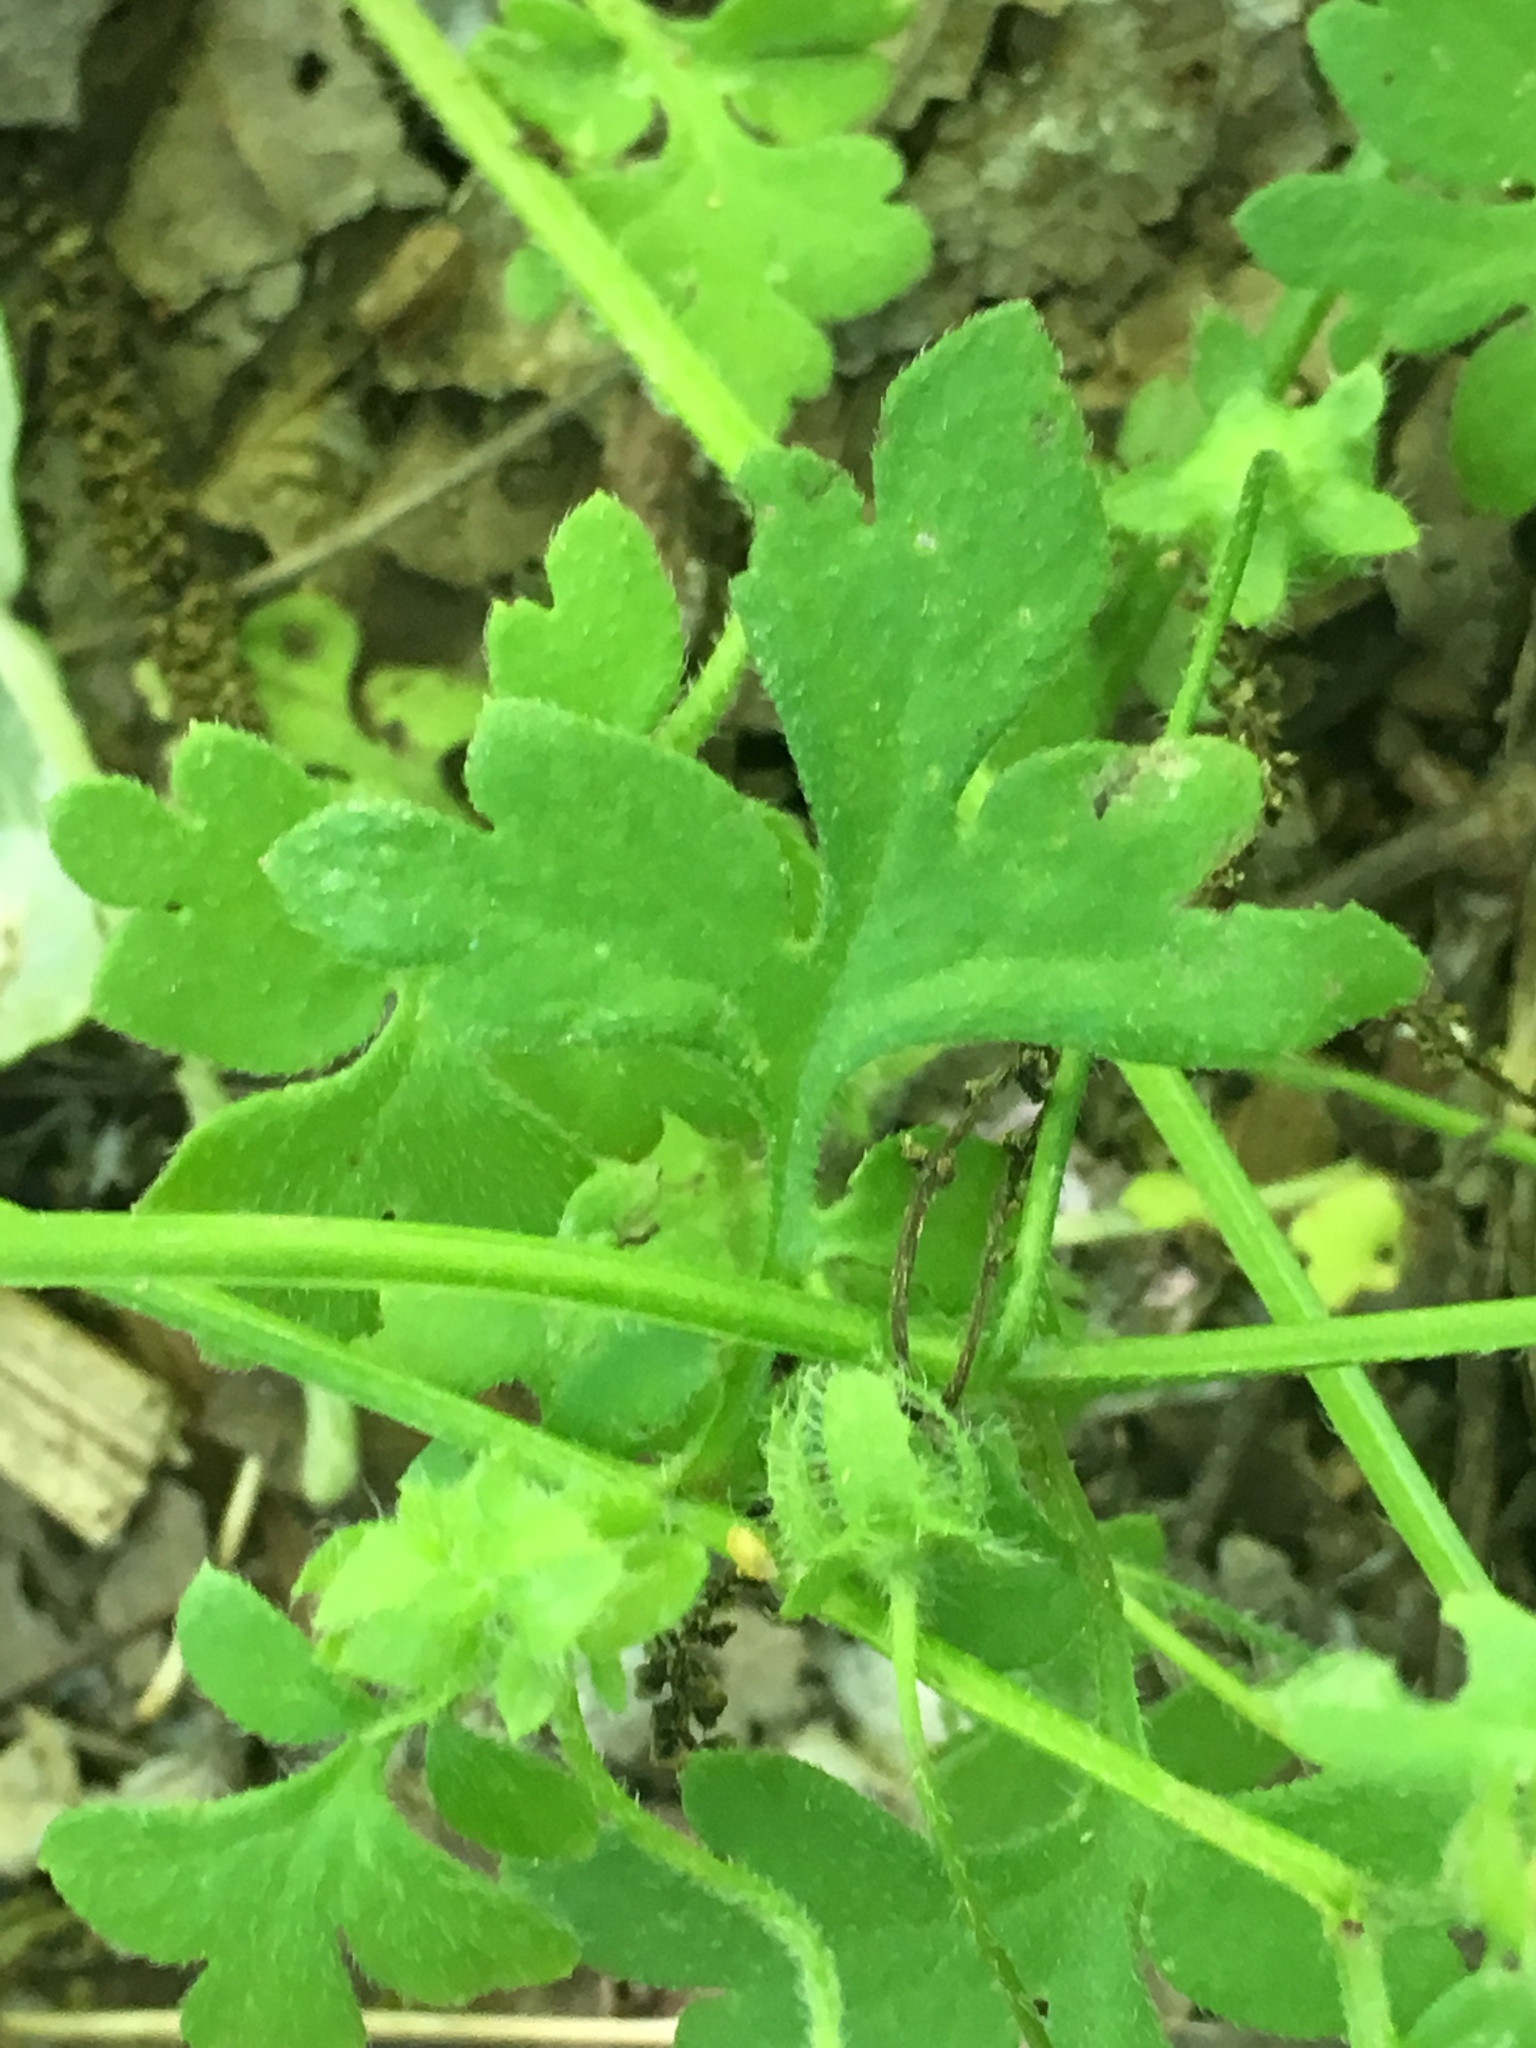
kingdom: Plantae
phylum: Tracheophyta
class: Magnoliopsida
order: Boraginales
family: Hydrophyllaceae
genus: Nemophila
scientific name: Nemophila phacelioides
